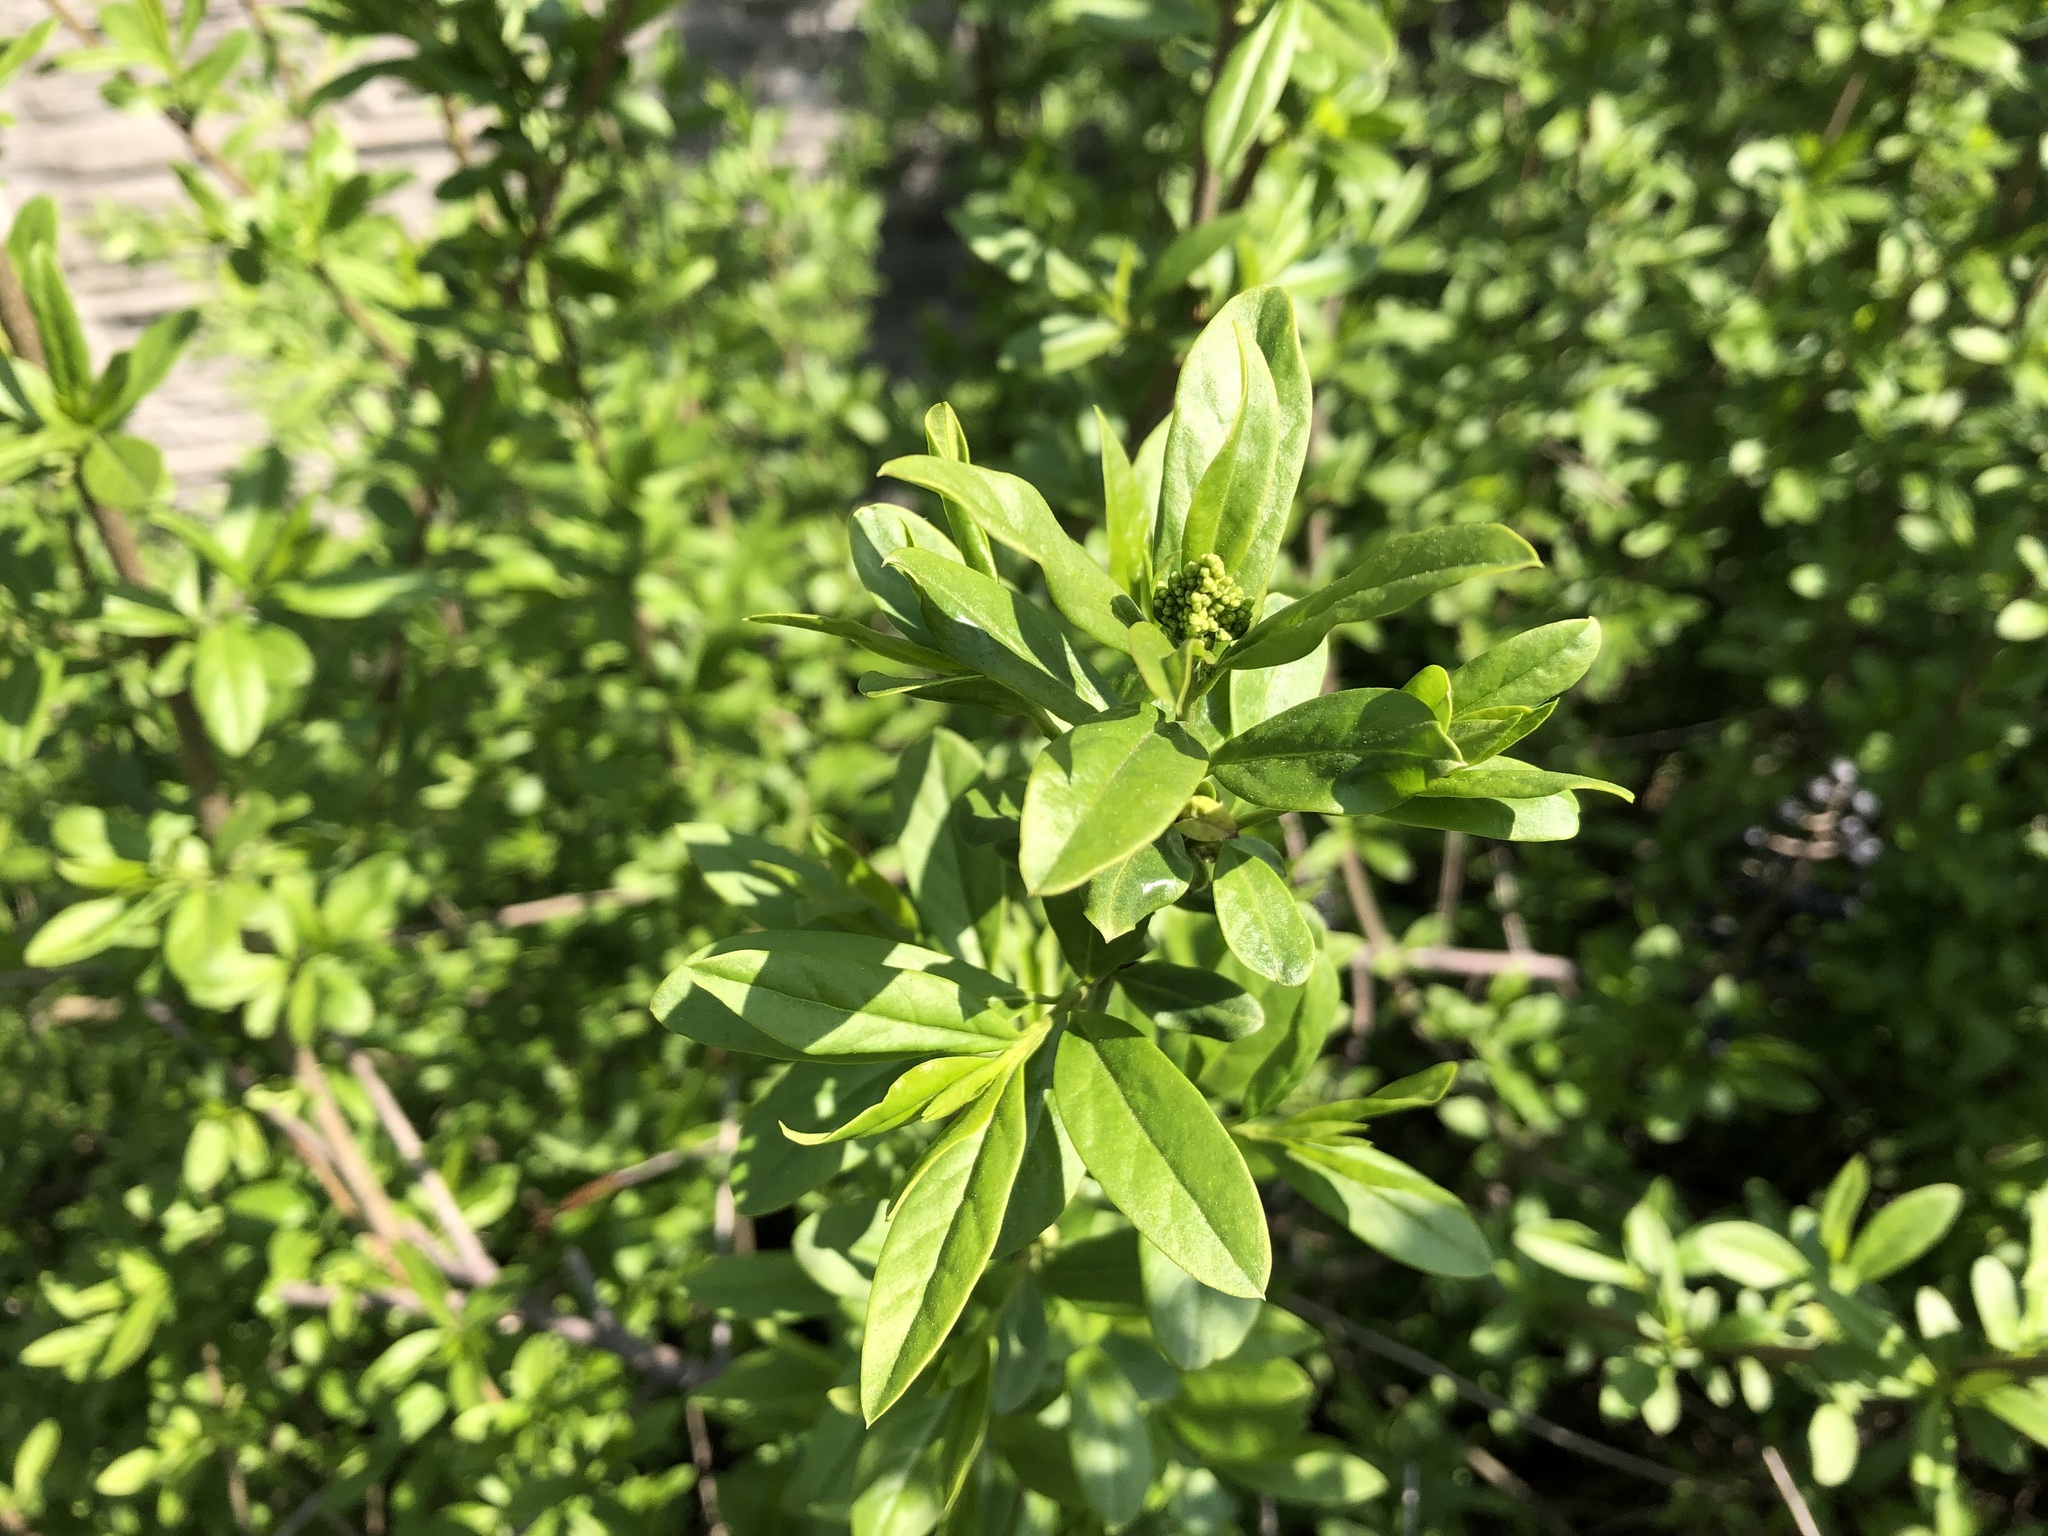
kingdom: Plantae
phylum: Tracheophyta
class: Magnoliopsida
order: Lamiales
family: Oleaceae
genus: Ligustrum
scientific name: Ligustrum vulgare
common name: Wild privet
